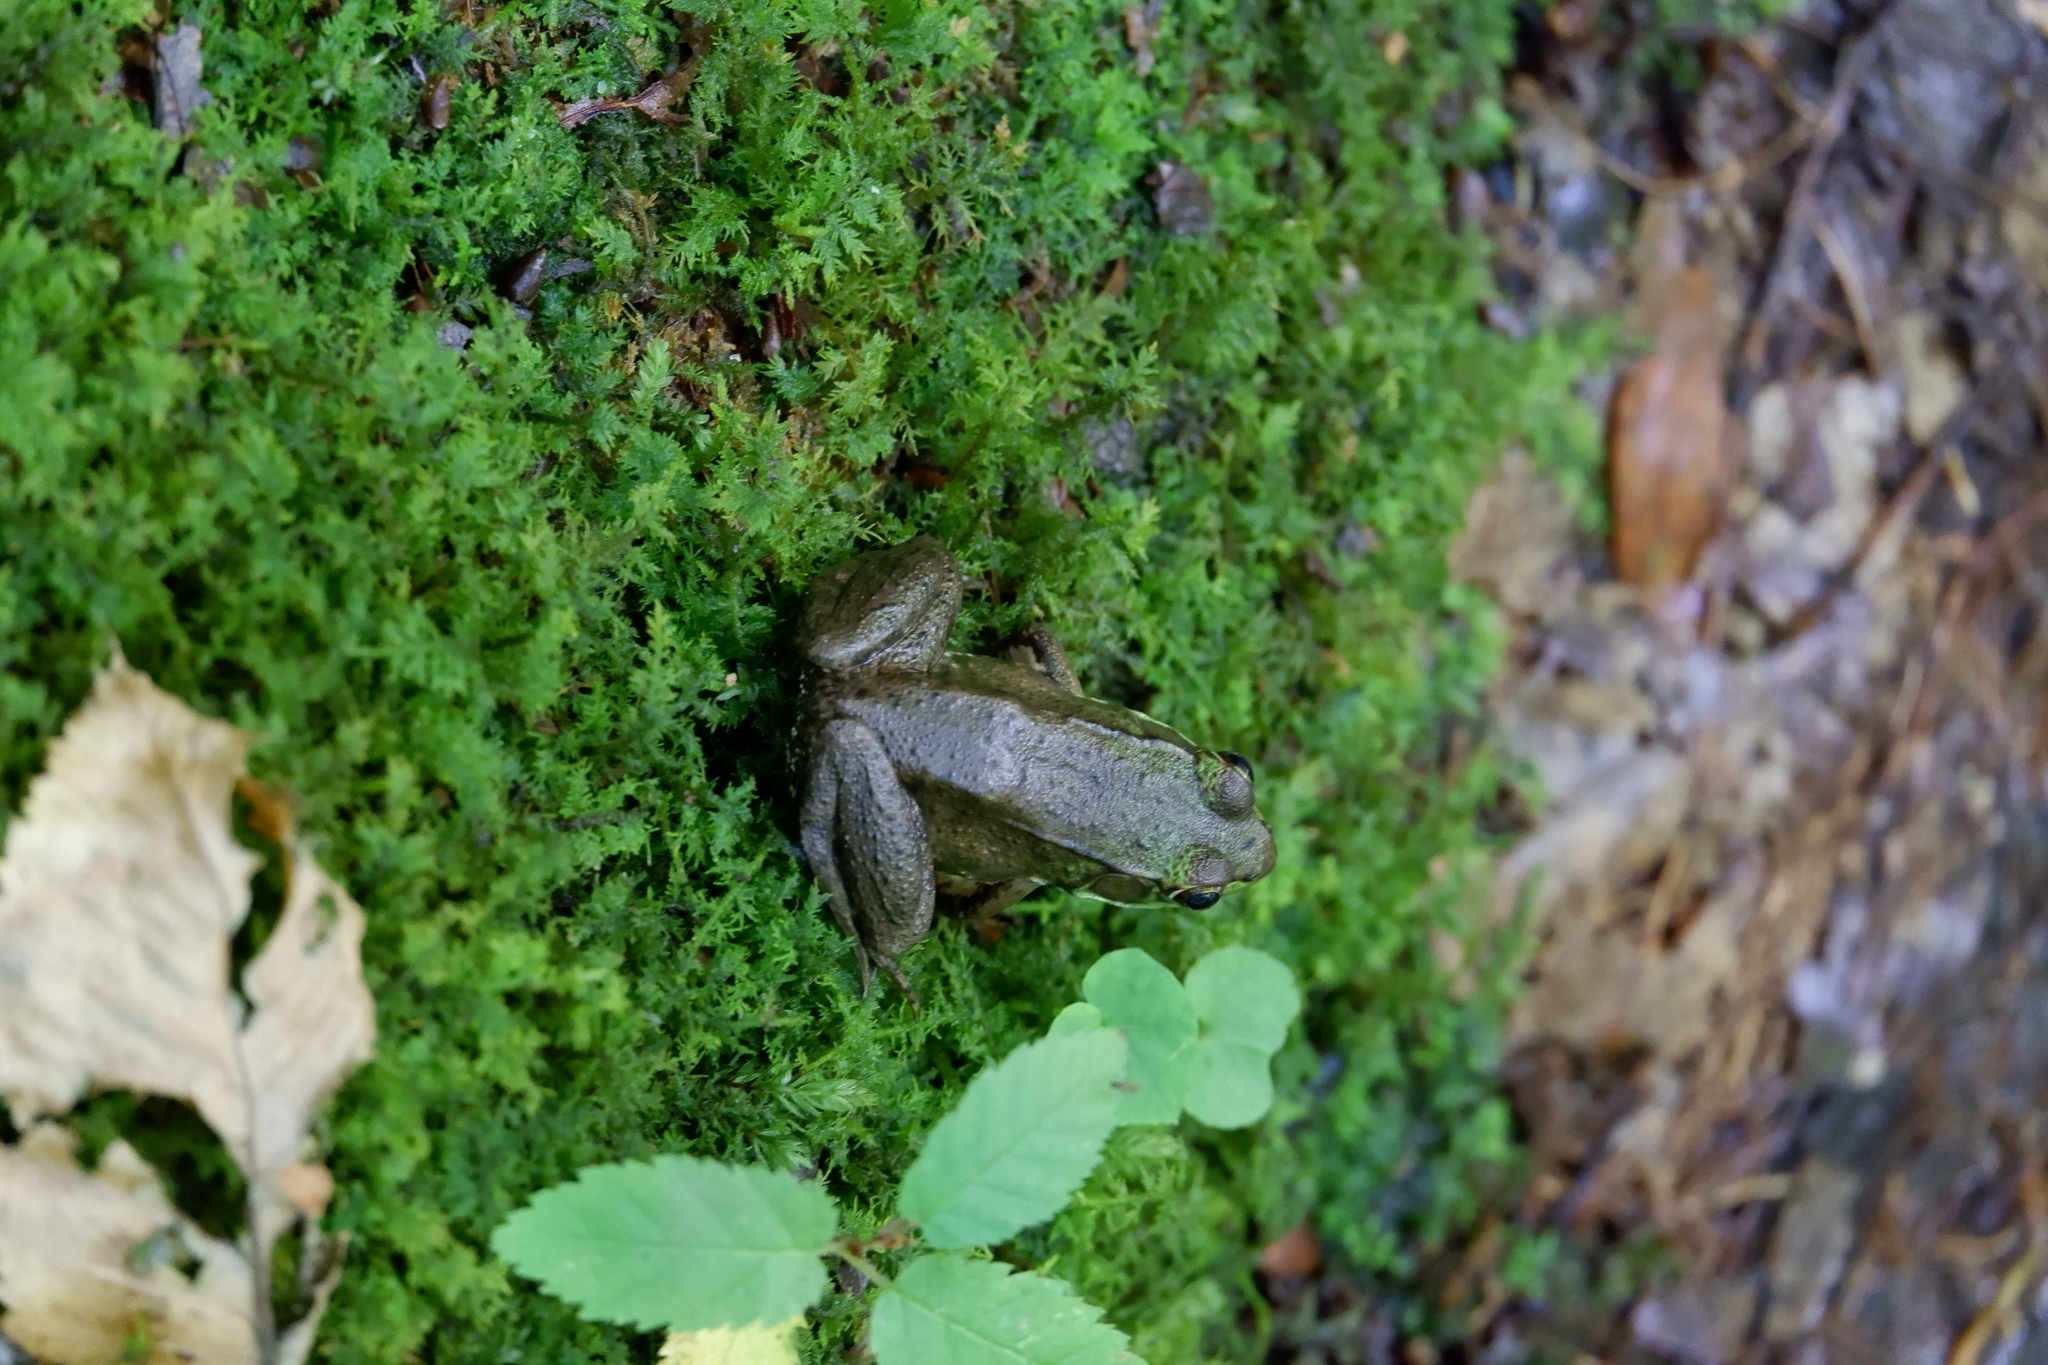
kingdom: Animalia
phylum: Chordata
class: Amphibia
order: Anura
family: Ranidae
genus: Lithobates
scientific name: Lithobates clamitans
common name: Green frog
